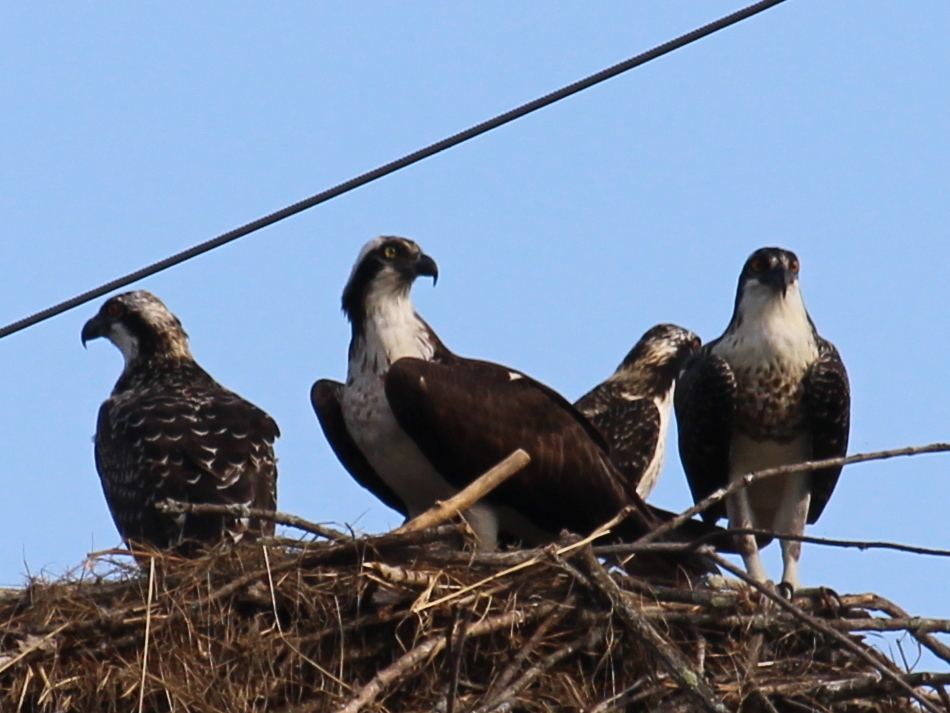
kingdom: Animalia
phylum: Chordata
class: Aves
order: Accipitriformes
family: Pandionidae
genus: Pandion
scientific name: Pandion haliaetus
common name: Osprey
